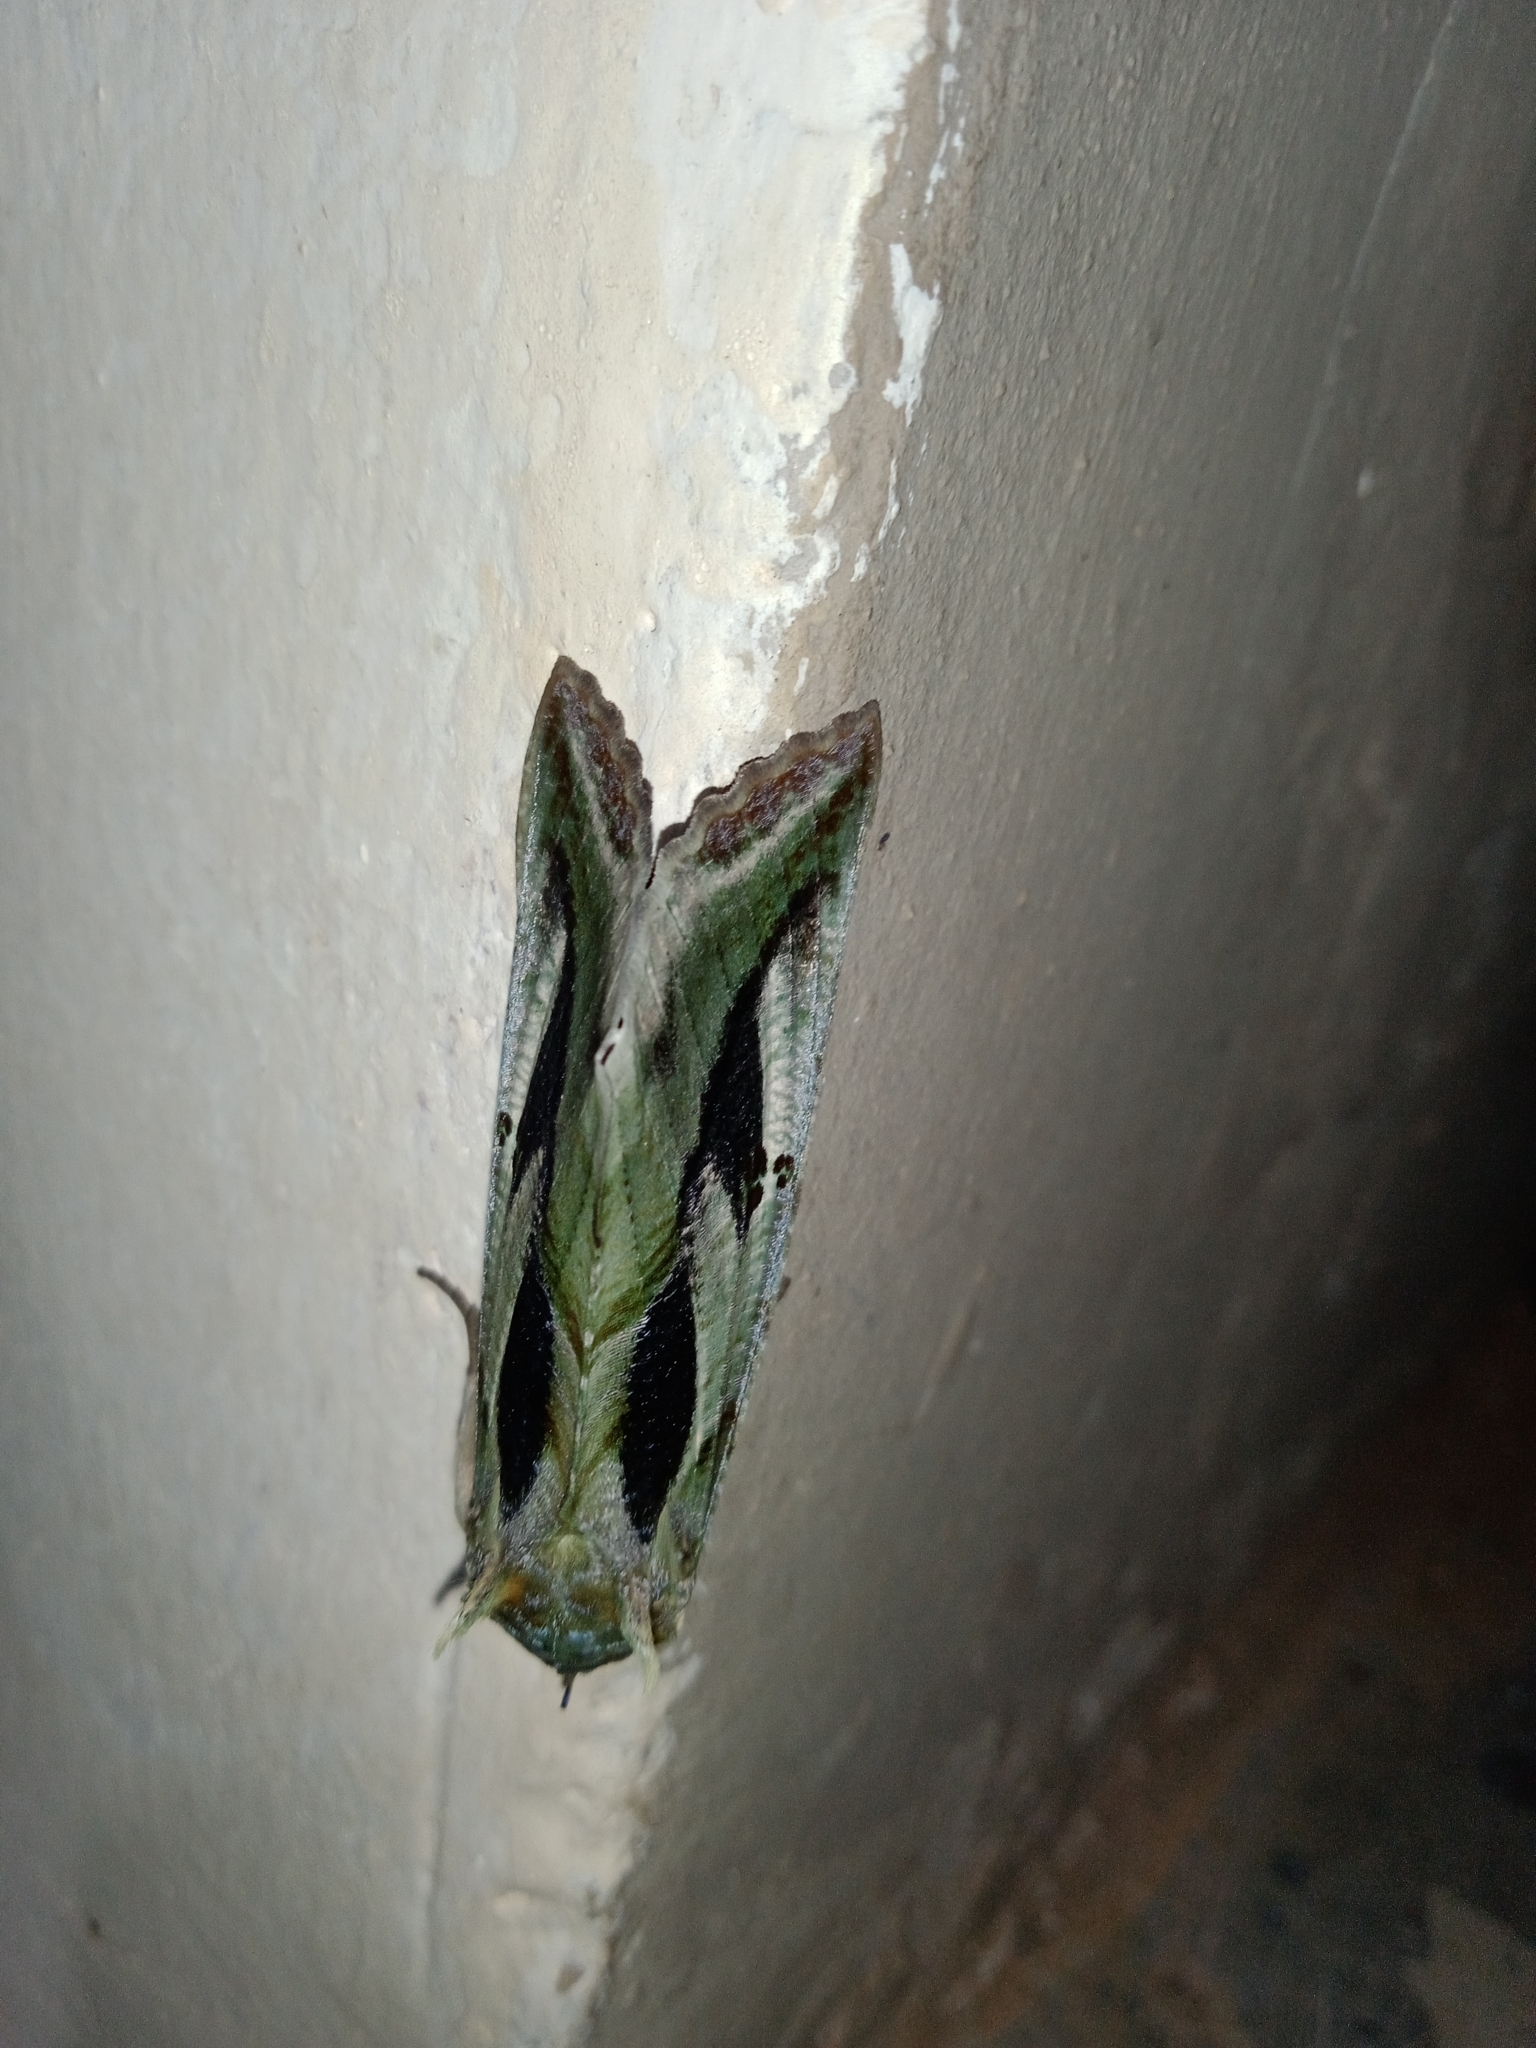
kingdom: Animalia
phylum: Arthropoda
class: Insecta
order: Lepidoptera
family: Erebidae
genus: Eudocima
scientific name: Eudocima materna
